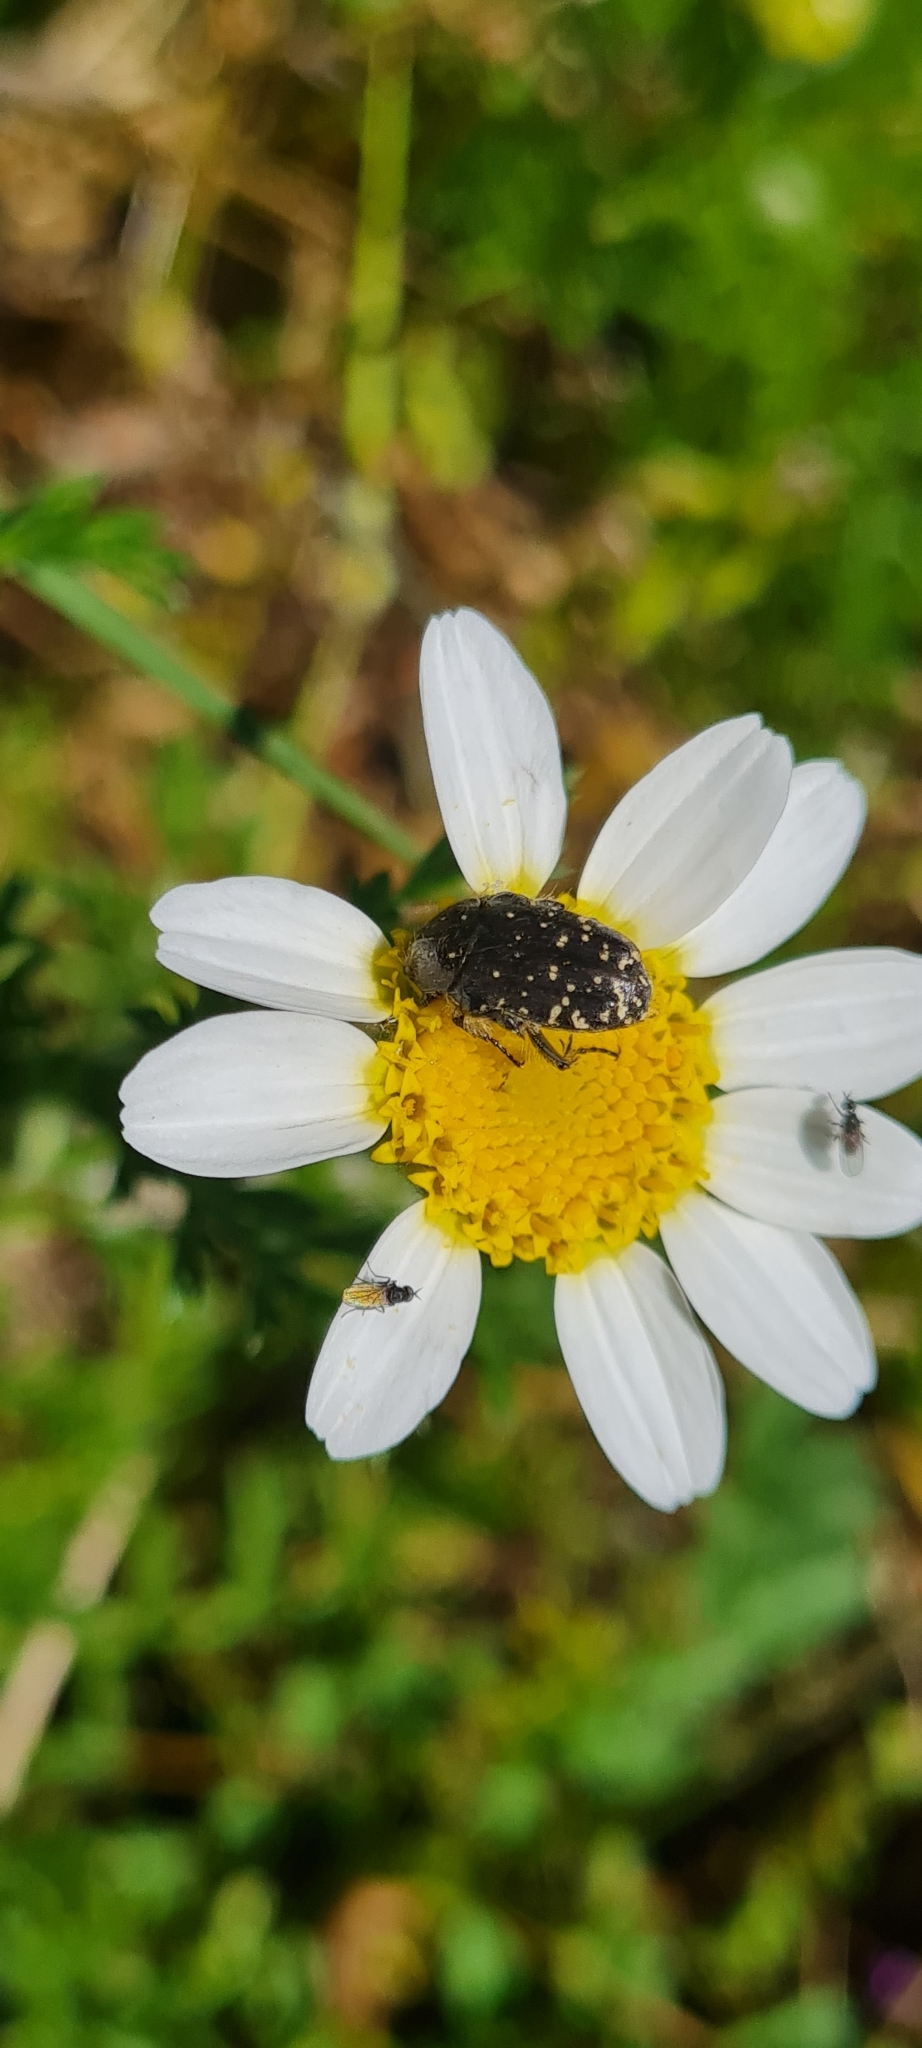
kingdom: Animalia
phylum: Arthropoda
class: Insecta
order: Coleoptera
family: Scarabaeidae
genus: Oxythyrea
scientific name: Oxythyrea funesta
